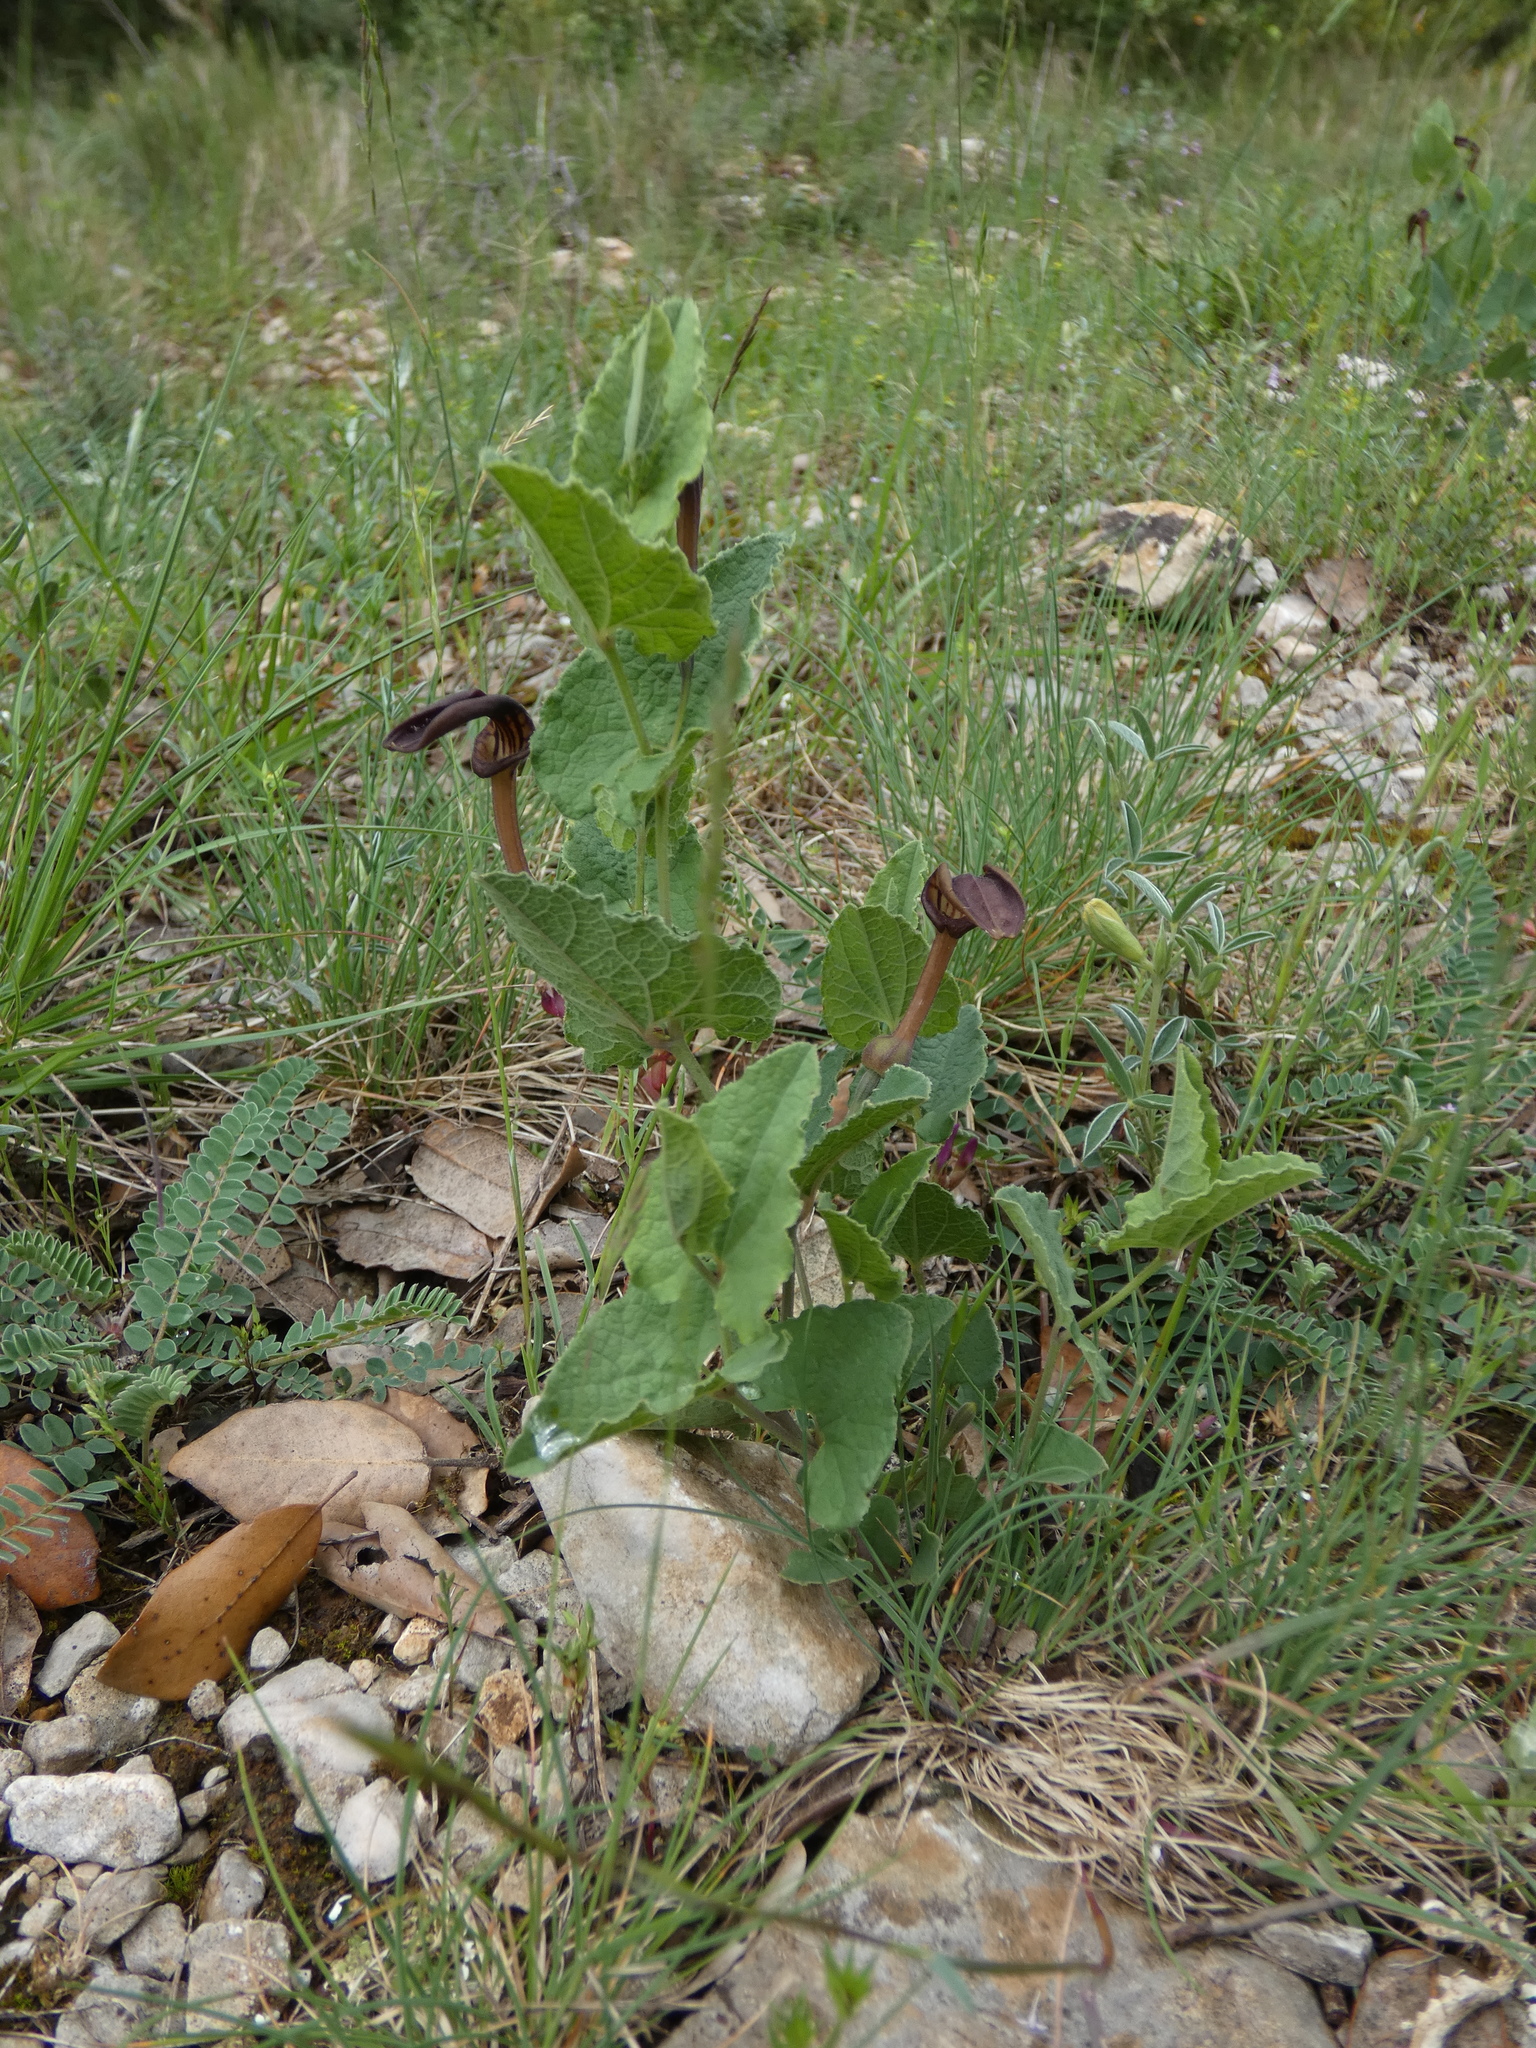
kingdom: Plantae
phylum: Tracheophyta
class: Magnoliopsida
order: Piperales
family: Aristolochiaceae
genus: Aristolochia
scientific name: Aristolochia pistolochia
